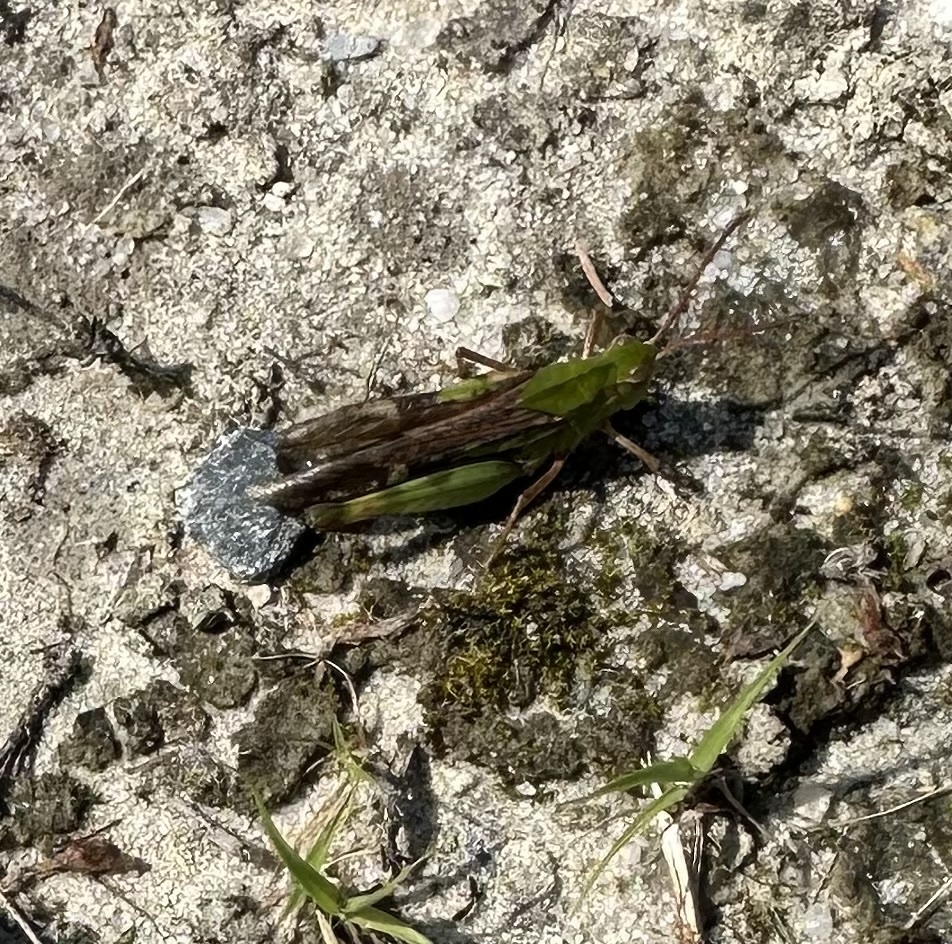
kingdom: Animalia
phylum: Arthropoda
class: Insecta
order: Orthoptera
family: Acrididae
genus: Chortophaga
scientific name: Chortophaga viridifasciata
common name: Green-striped grasshopper
